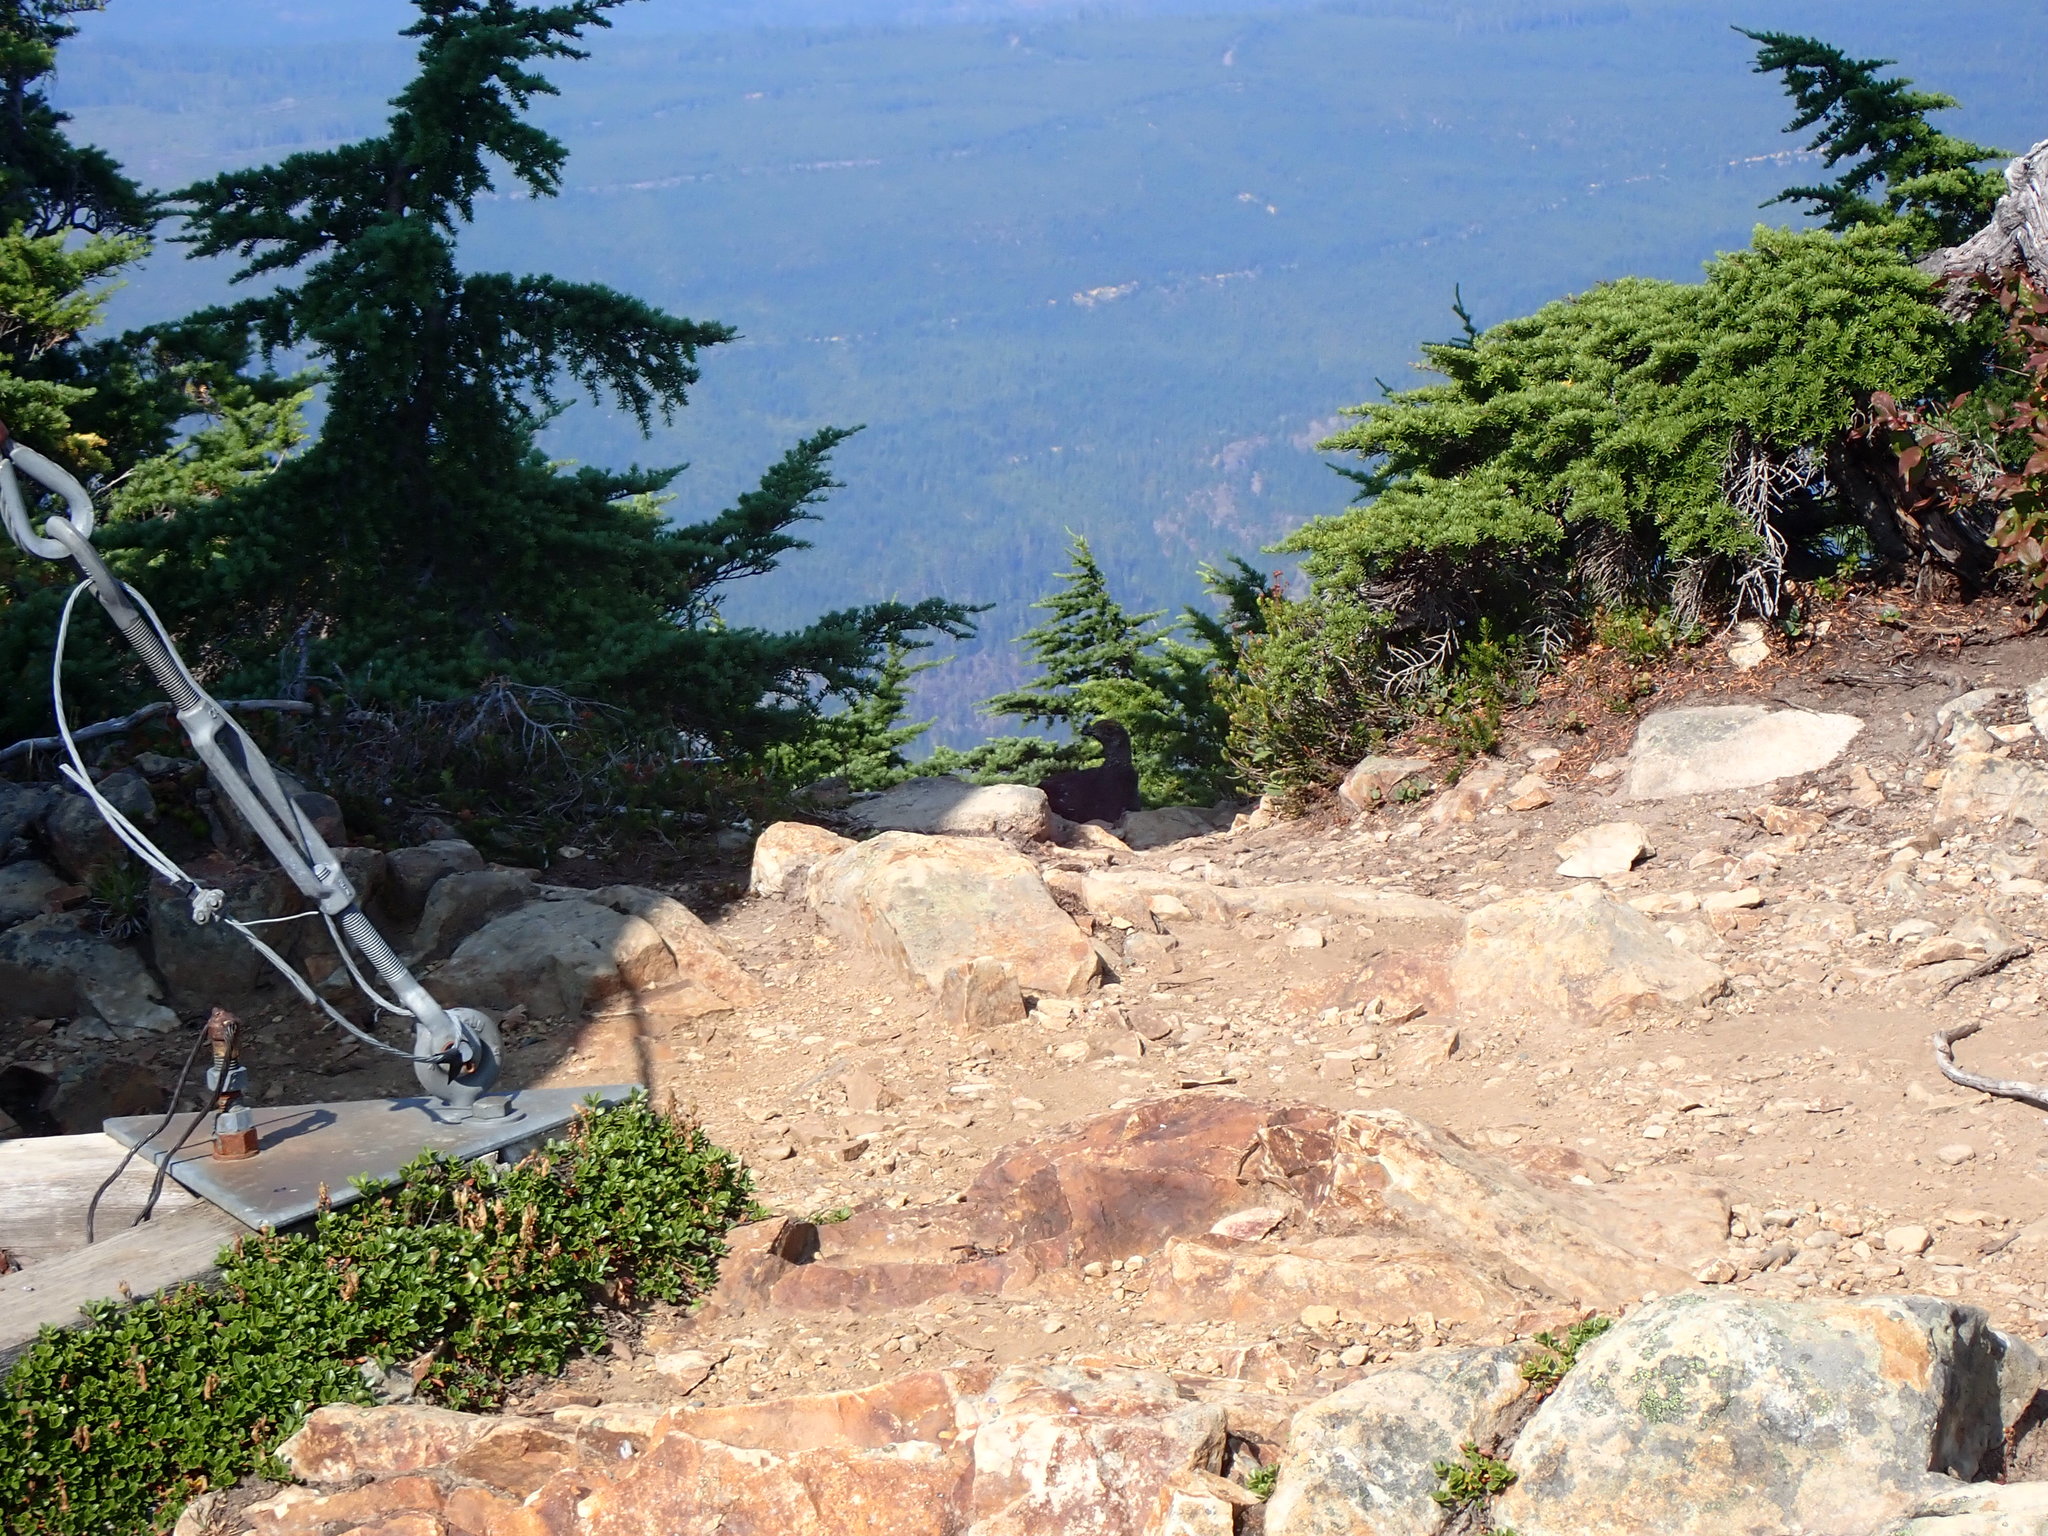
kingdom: Animalia
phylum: Chordata
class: Aves
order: Galliformes
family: Phasianidae
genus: Dendragapus
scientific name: Dendragapus fuliginosus
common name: Sooty grouse
